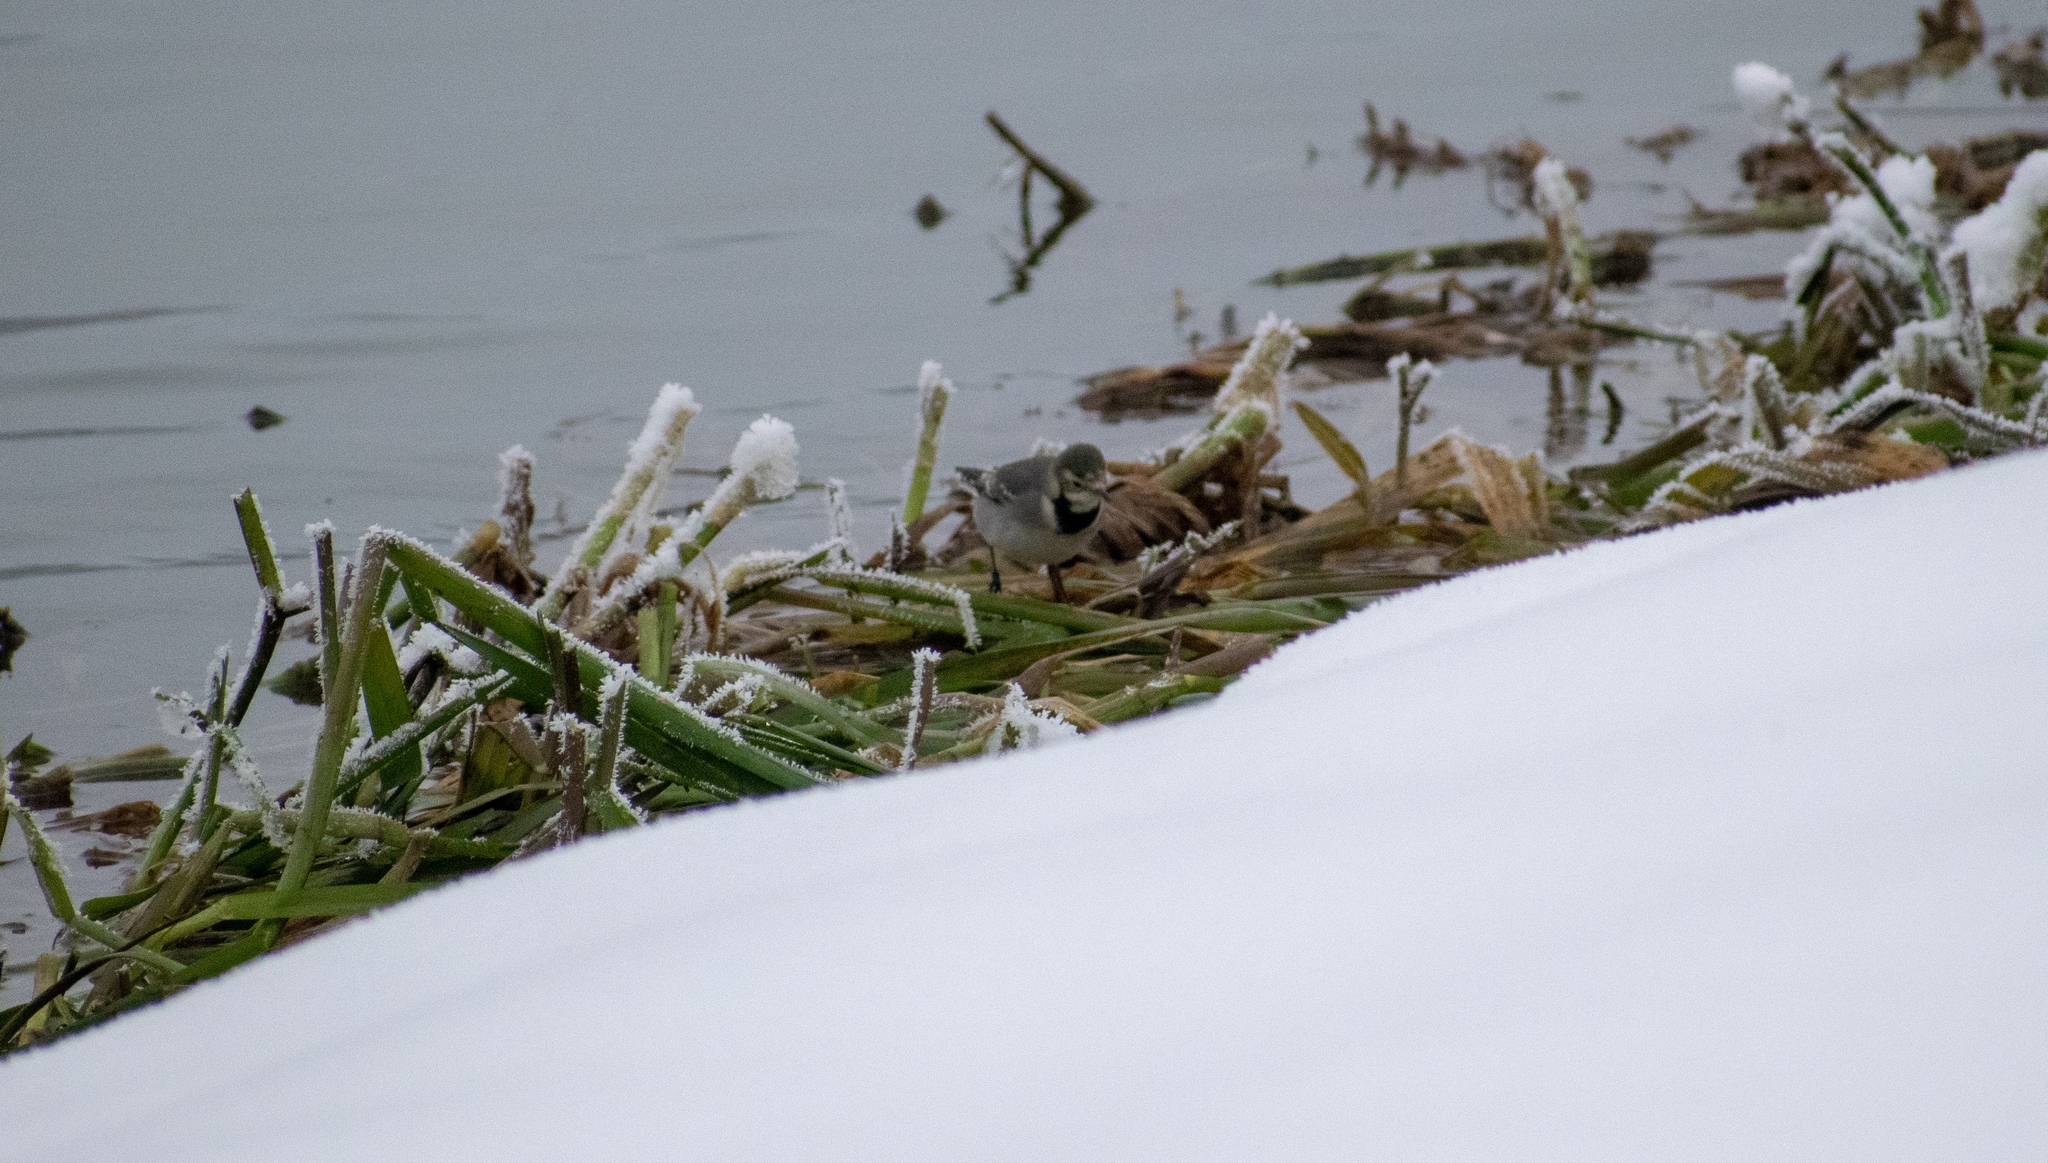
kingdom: Animalia
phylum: Chordata
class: Aves
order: Passeriformes
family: Motacillidae
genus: Motacilla
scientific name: Motacilla alba
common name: White wagtail
